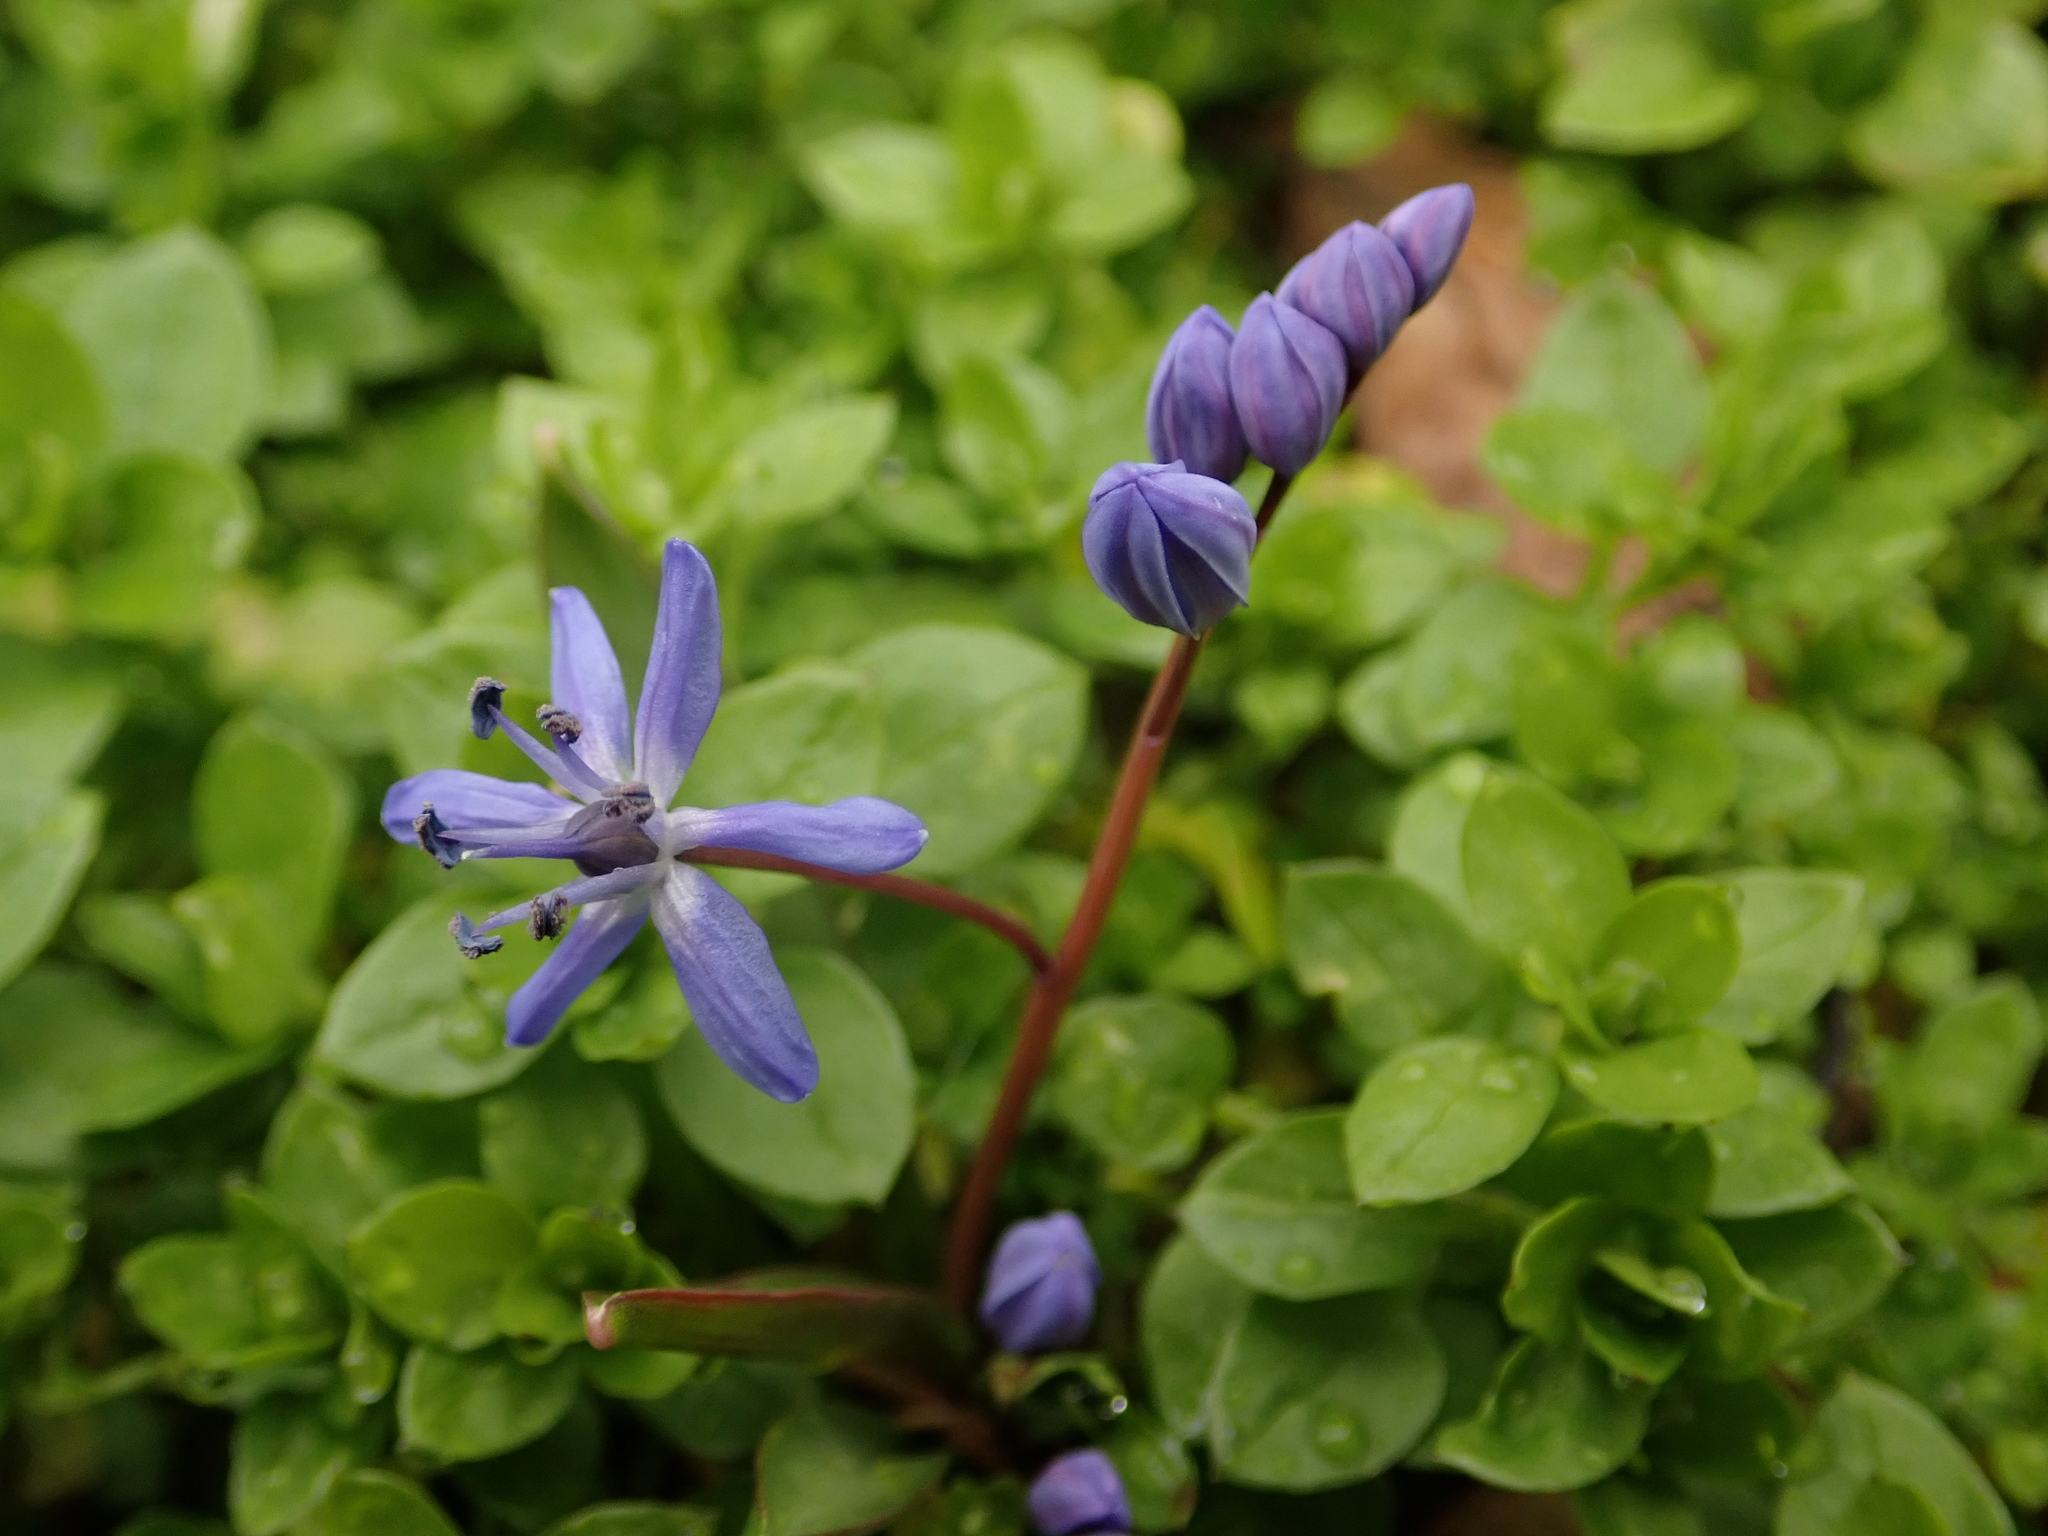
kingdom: Plantae
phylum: Tracheophyta
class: Liliopsida
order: Asparagales
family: Asparagaceae
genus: Scilla
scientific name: Scilla bifolia
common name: Alpine squill
